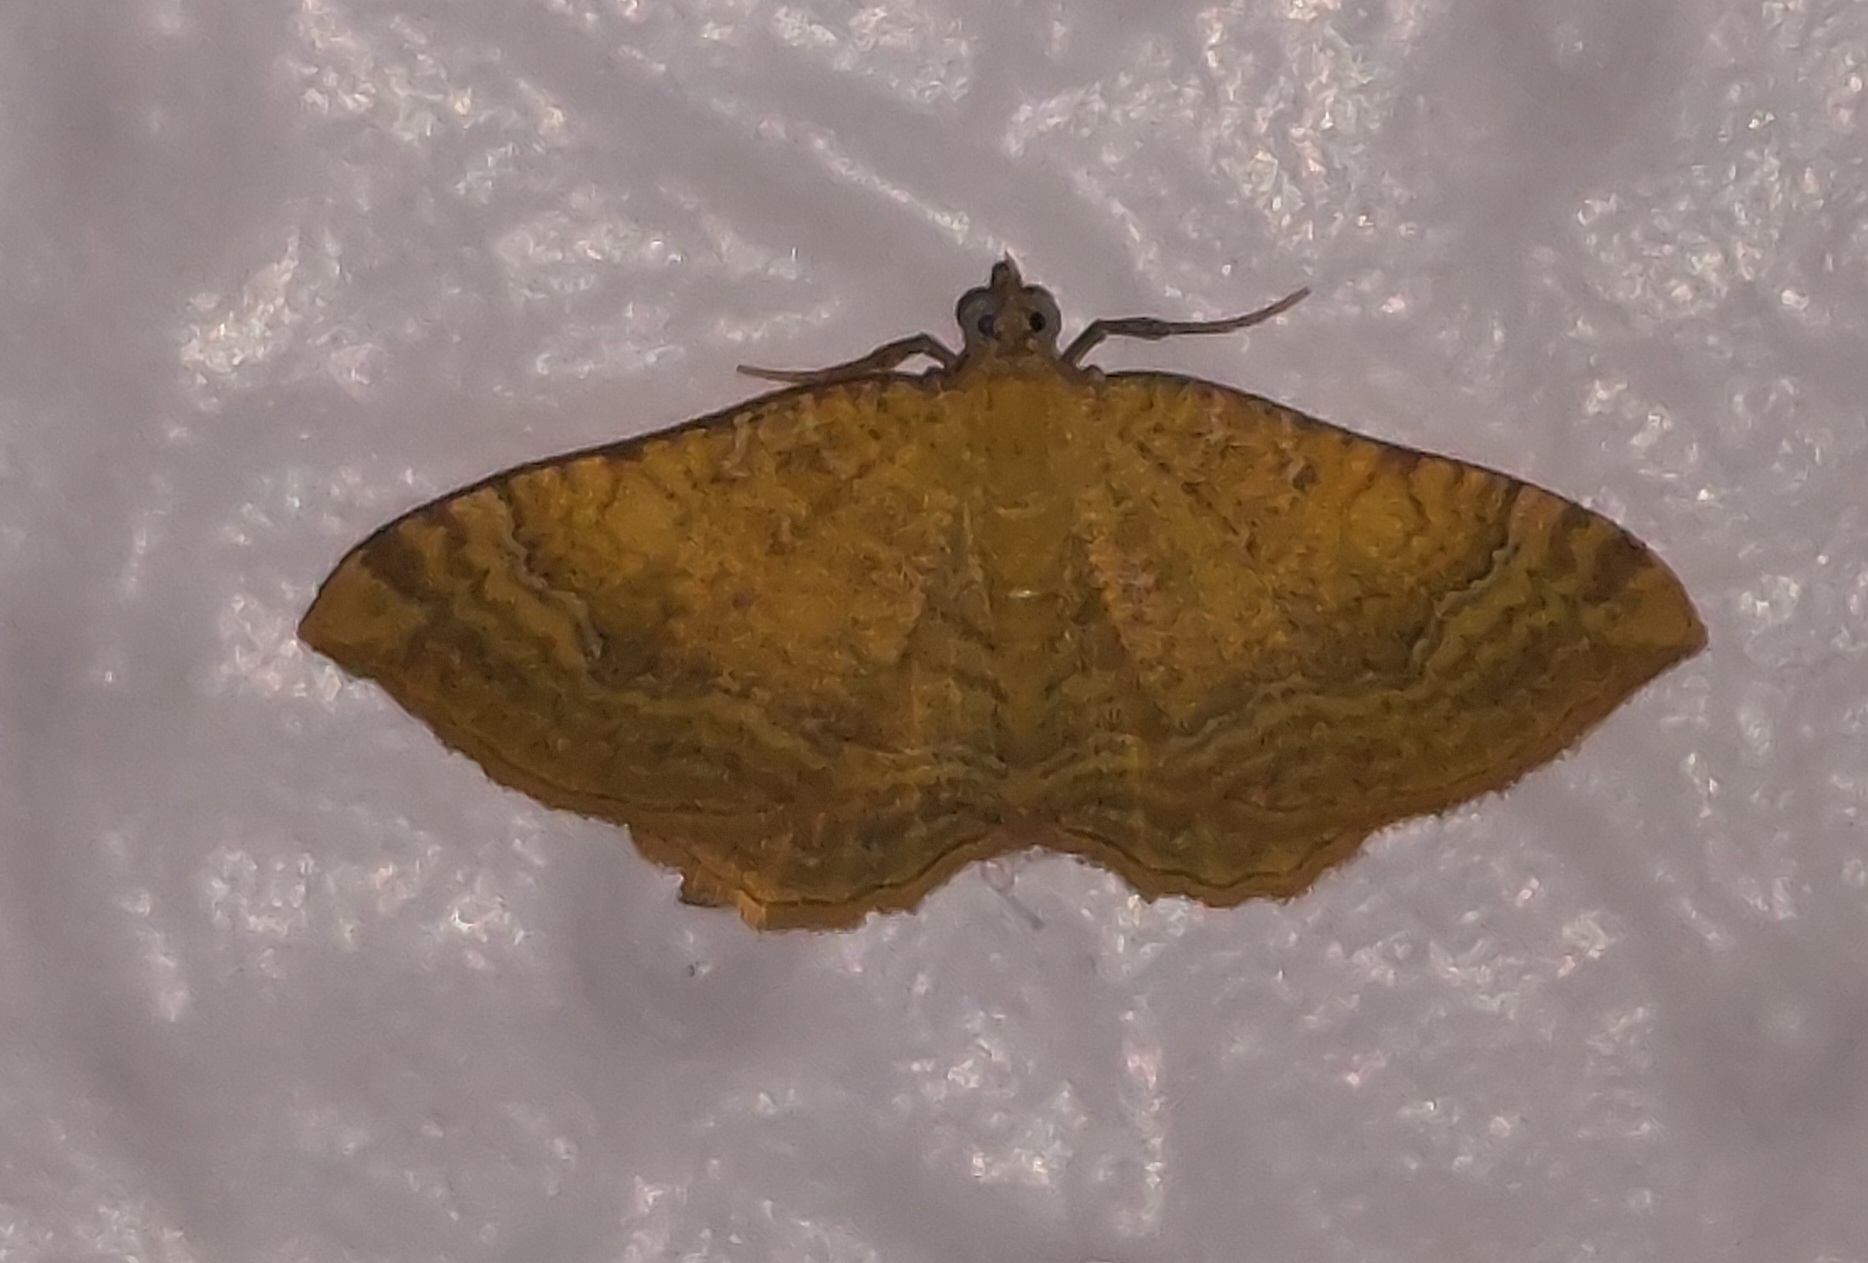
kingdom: Animalia
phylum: Arthropoda
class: Insecta
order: Lepidoptera
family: Geometridae
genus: Camptogramma
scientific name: Camptogramma bilineata
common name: Yellow shell
